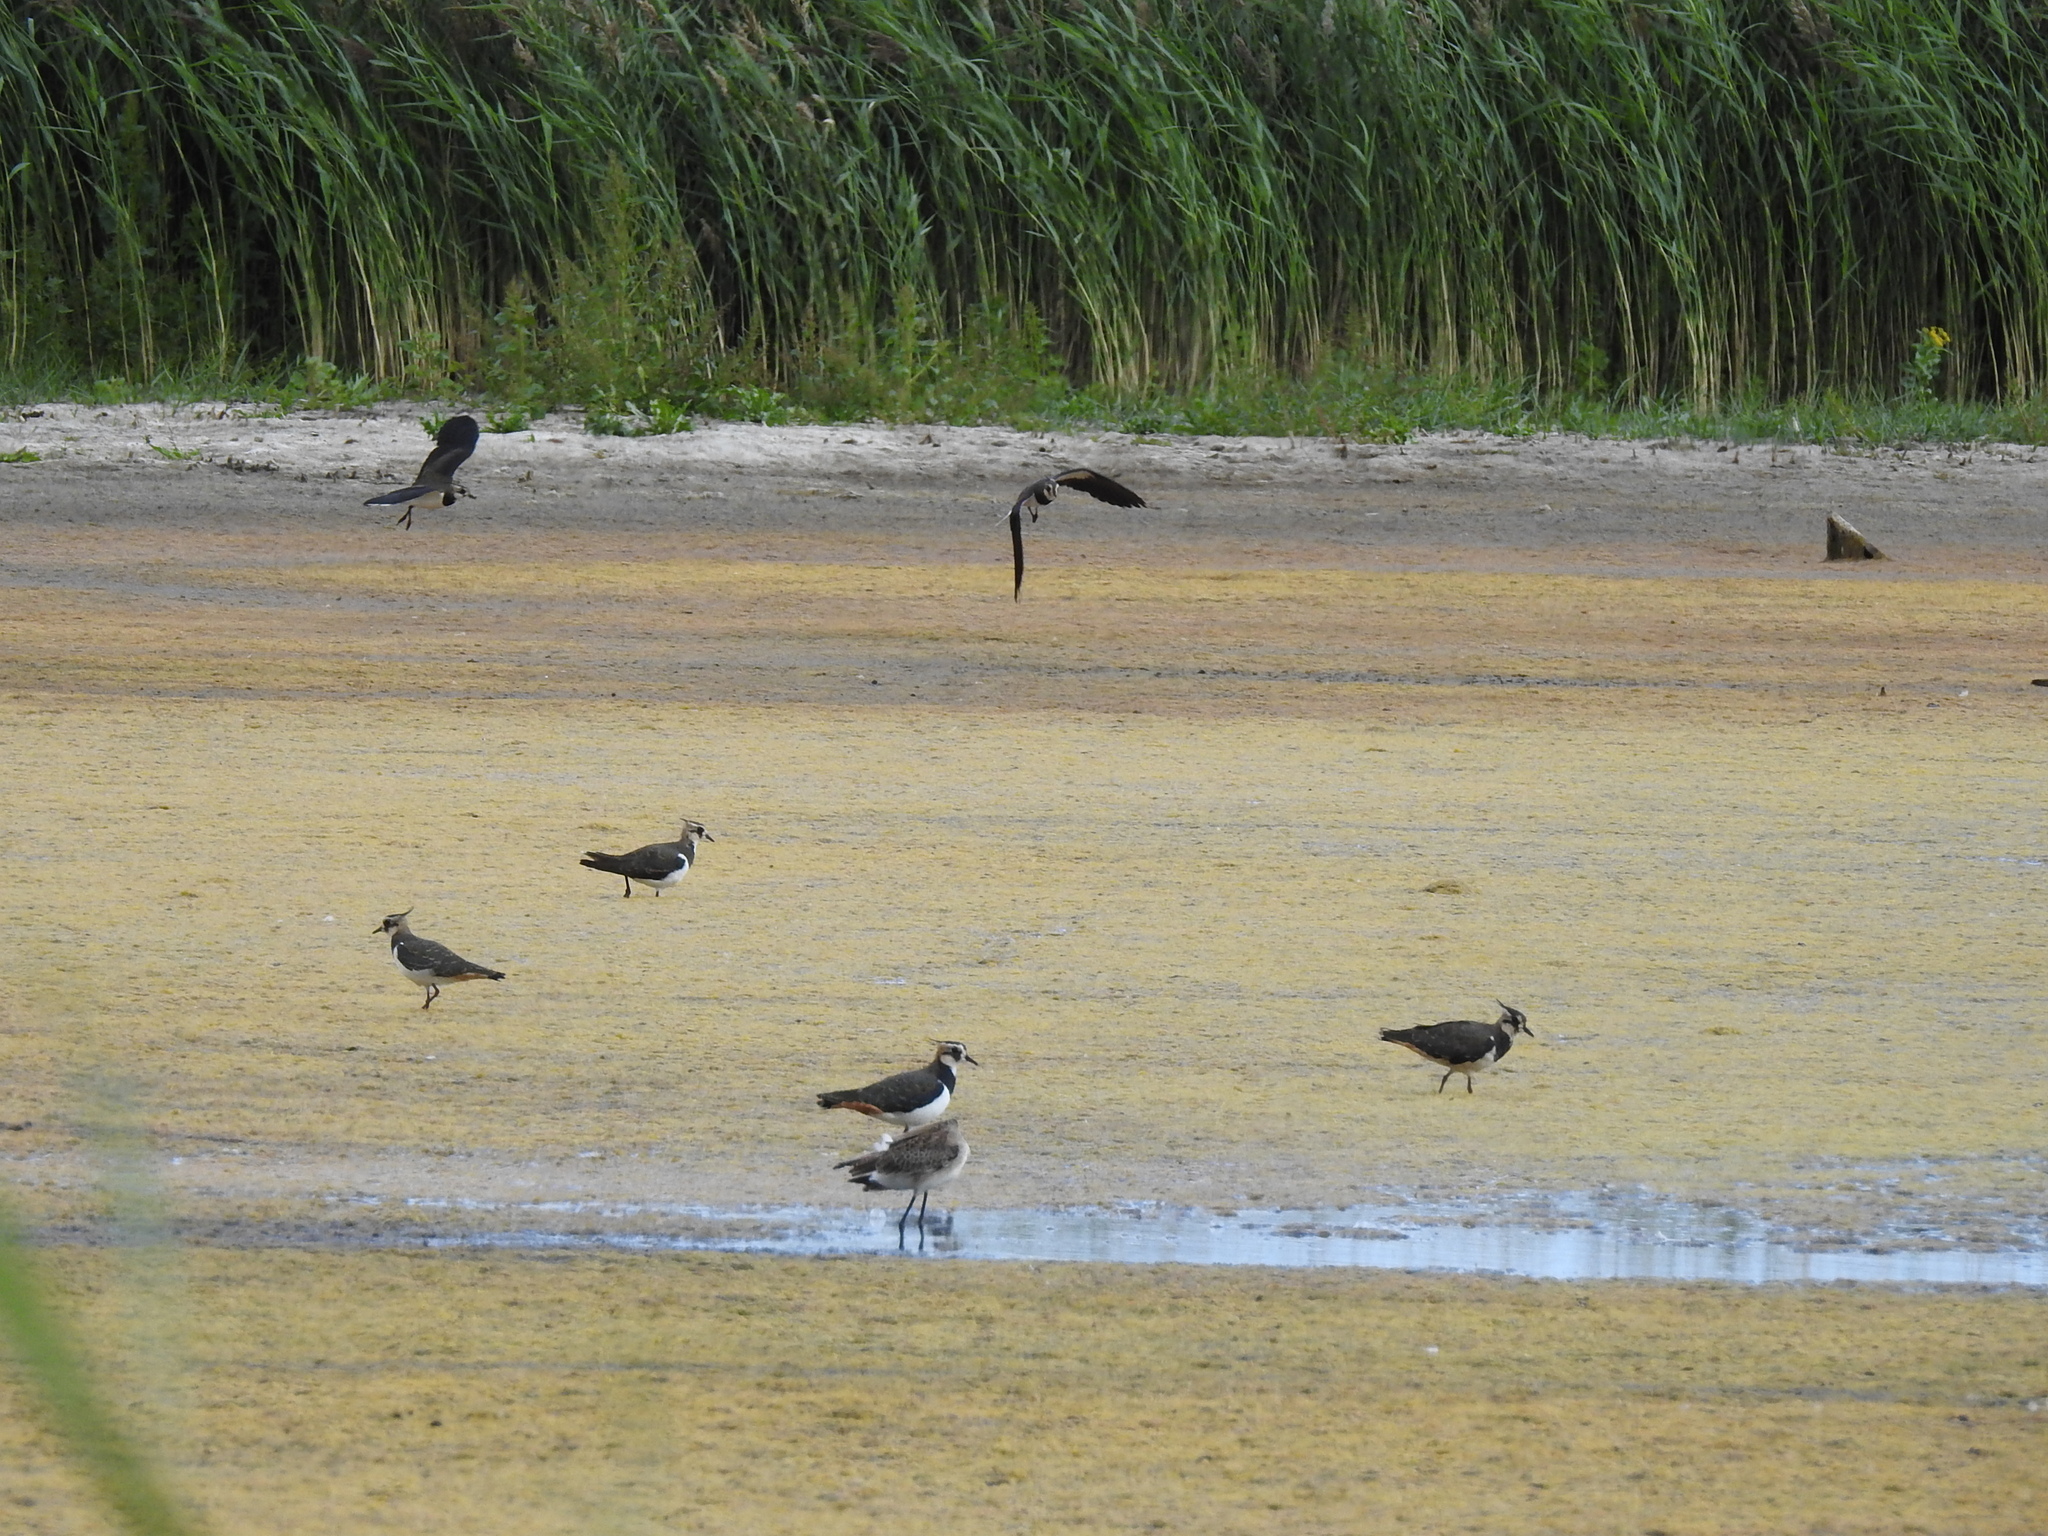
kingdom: Animalia
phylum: Chordata
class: Aves
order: Charadriiformes
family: Charadriidae
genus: Vanellus
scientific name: Vanellus vanellus
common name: Northern lapwing
